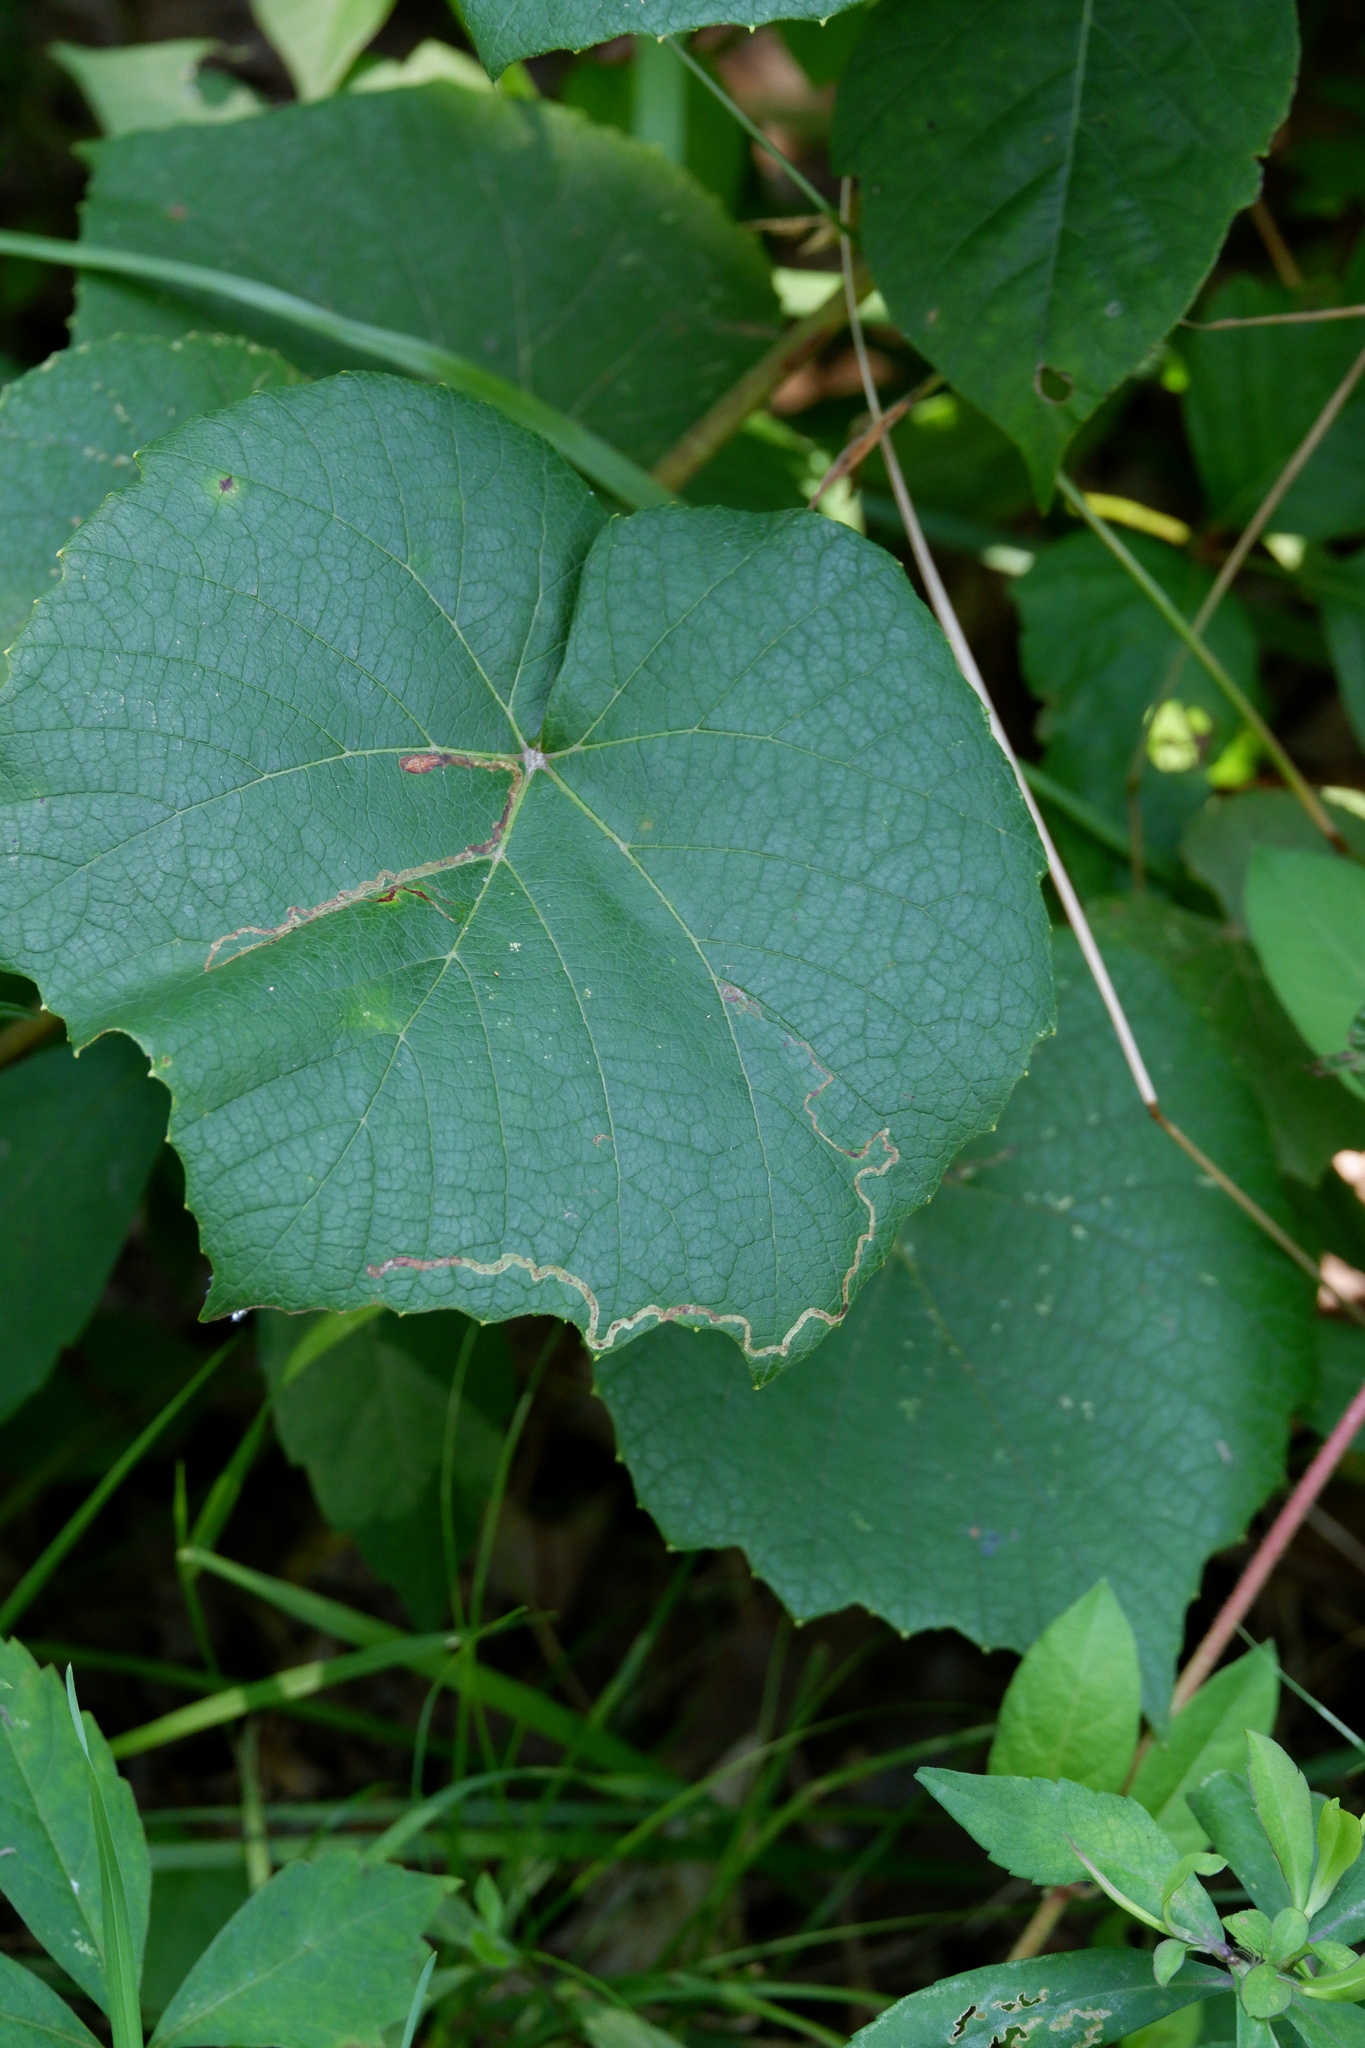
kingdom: Animalia
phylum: Arthropoda
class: Insecta
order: Lepidoptera
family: Gracillariidae
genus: Phyllocnistis
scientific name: Phyllocnistis vitifoliella
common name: Grape leaf-miner moth
